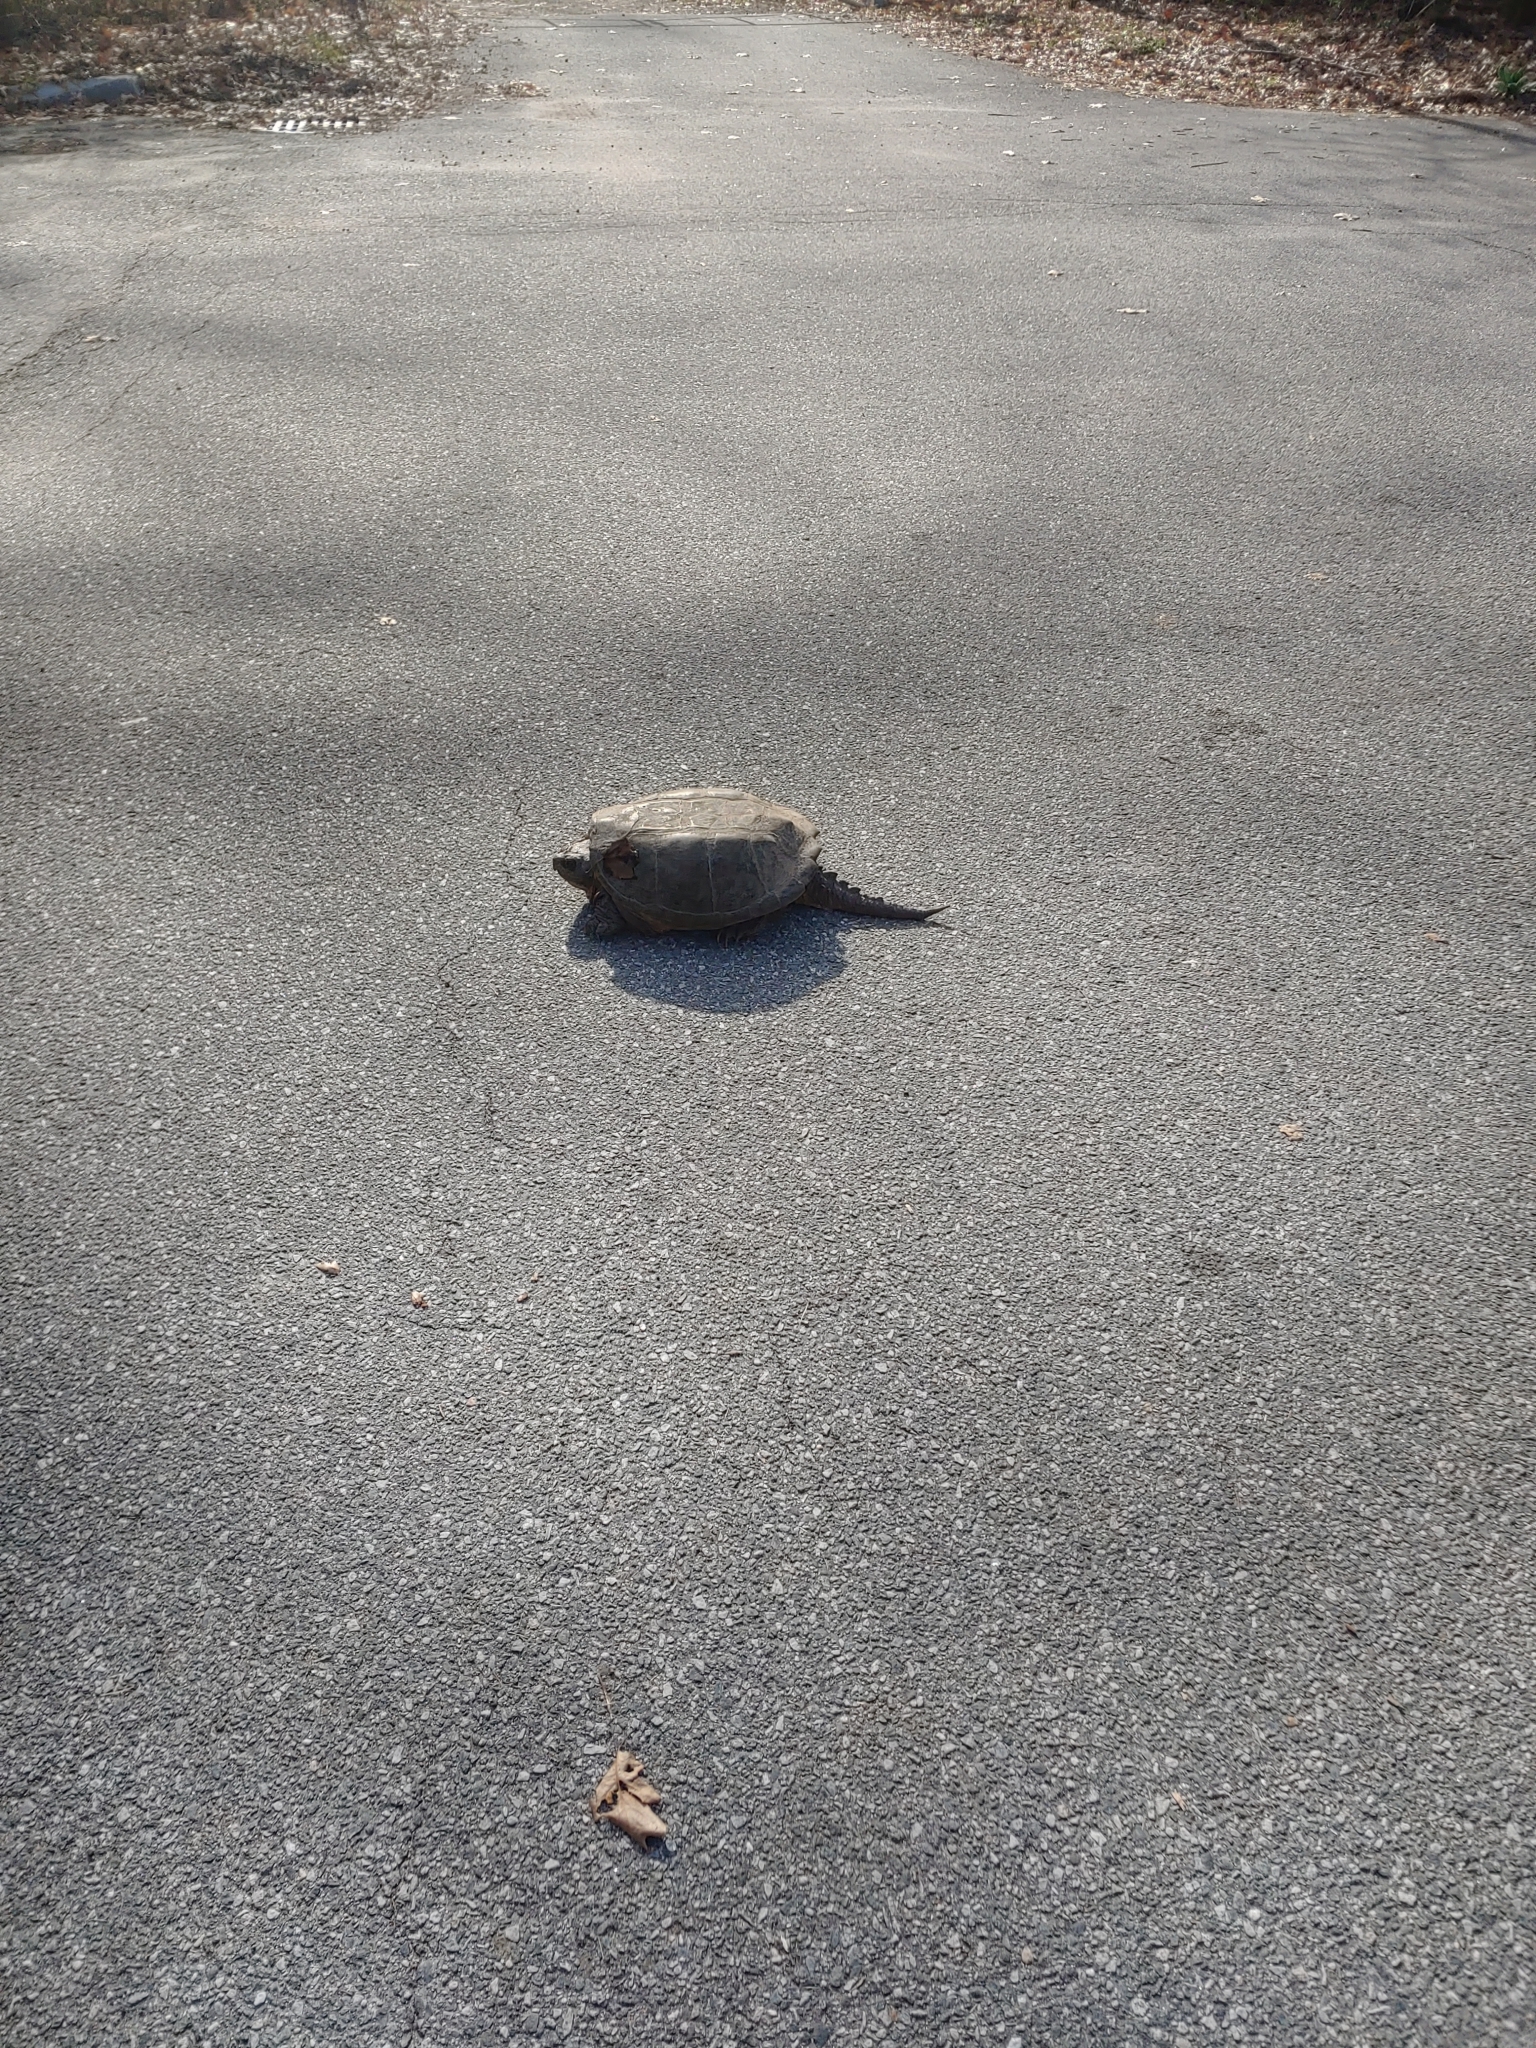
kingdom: Animalia
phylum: Chordata
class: Testudines
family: Chelydridae
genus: Chelydra
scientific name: Chelydra serpentina
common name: Common snapping turtle
